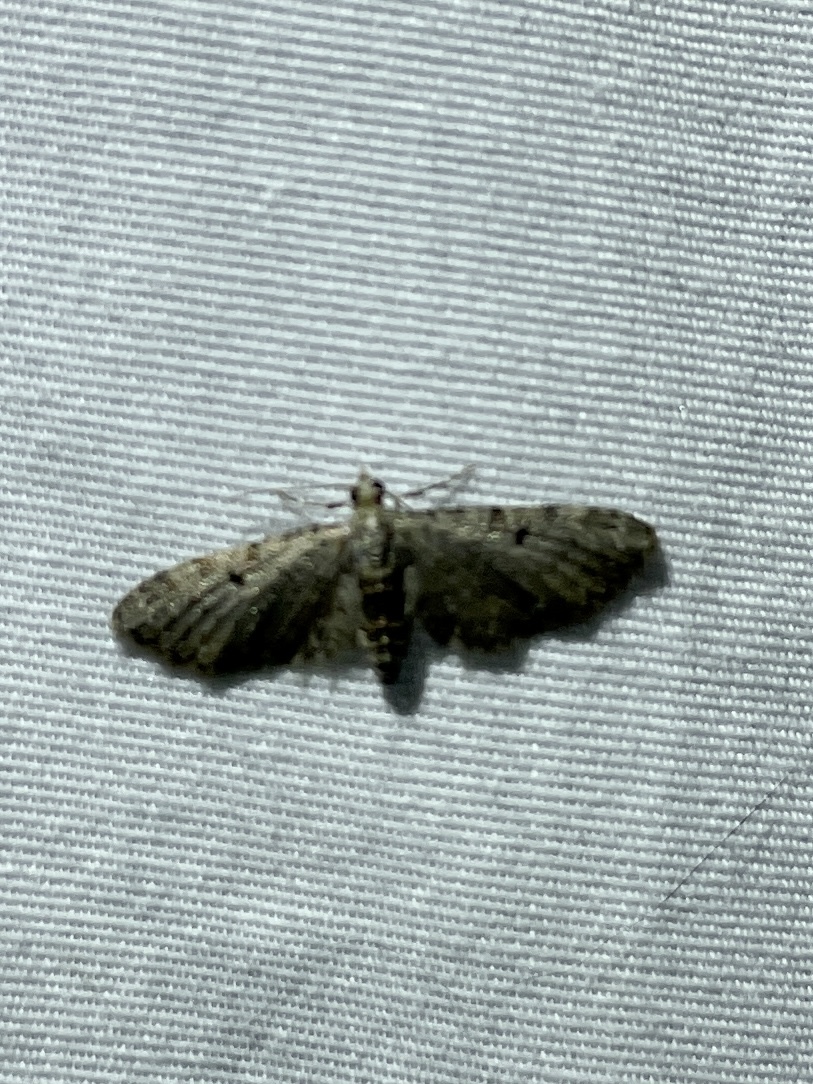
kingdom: Animalia
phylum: Arthropoda
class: Insecta
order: Lepidoptera
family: Geometridae
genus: Eupithecia
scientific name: Eupithecia miserulata
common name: Common eupithecia
